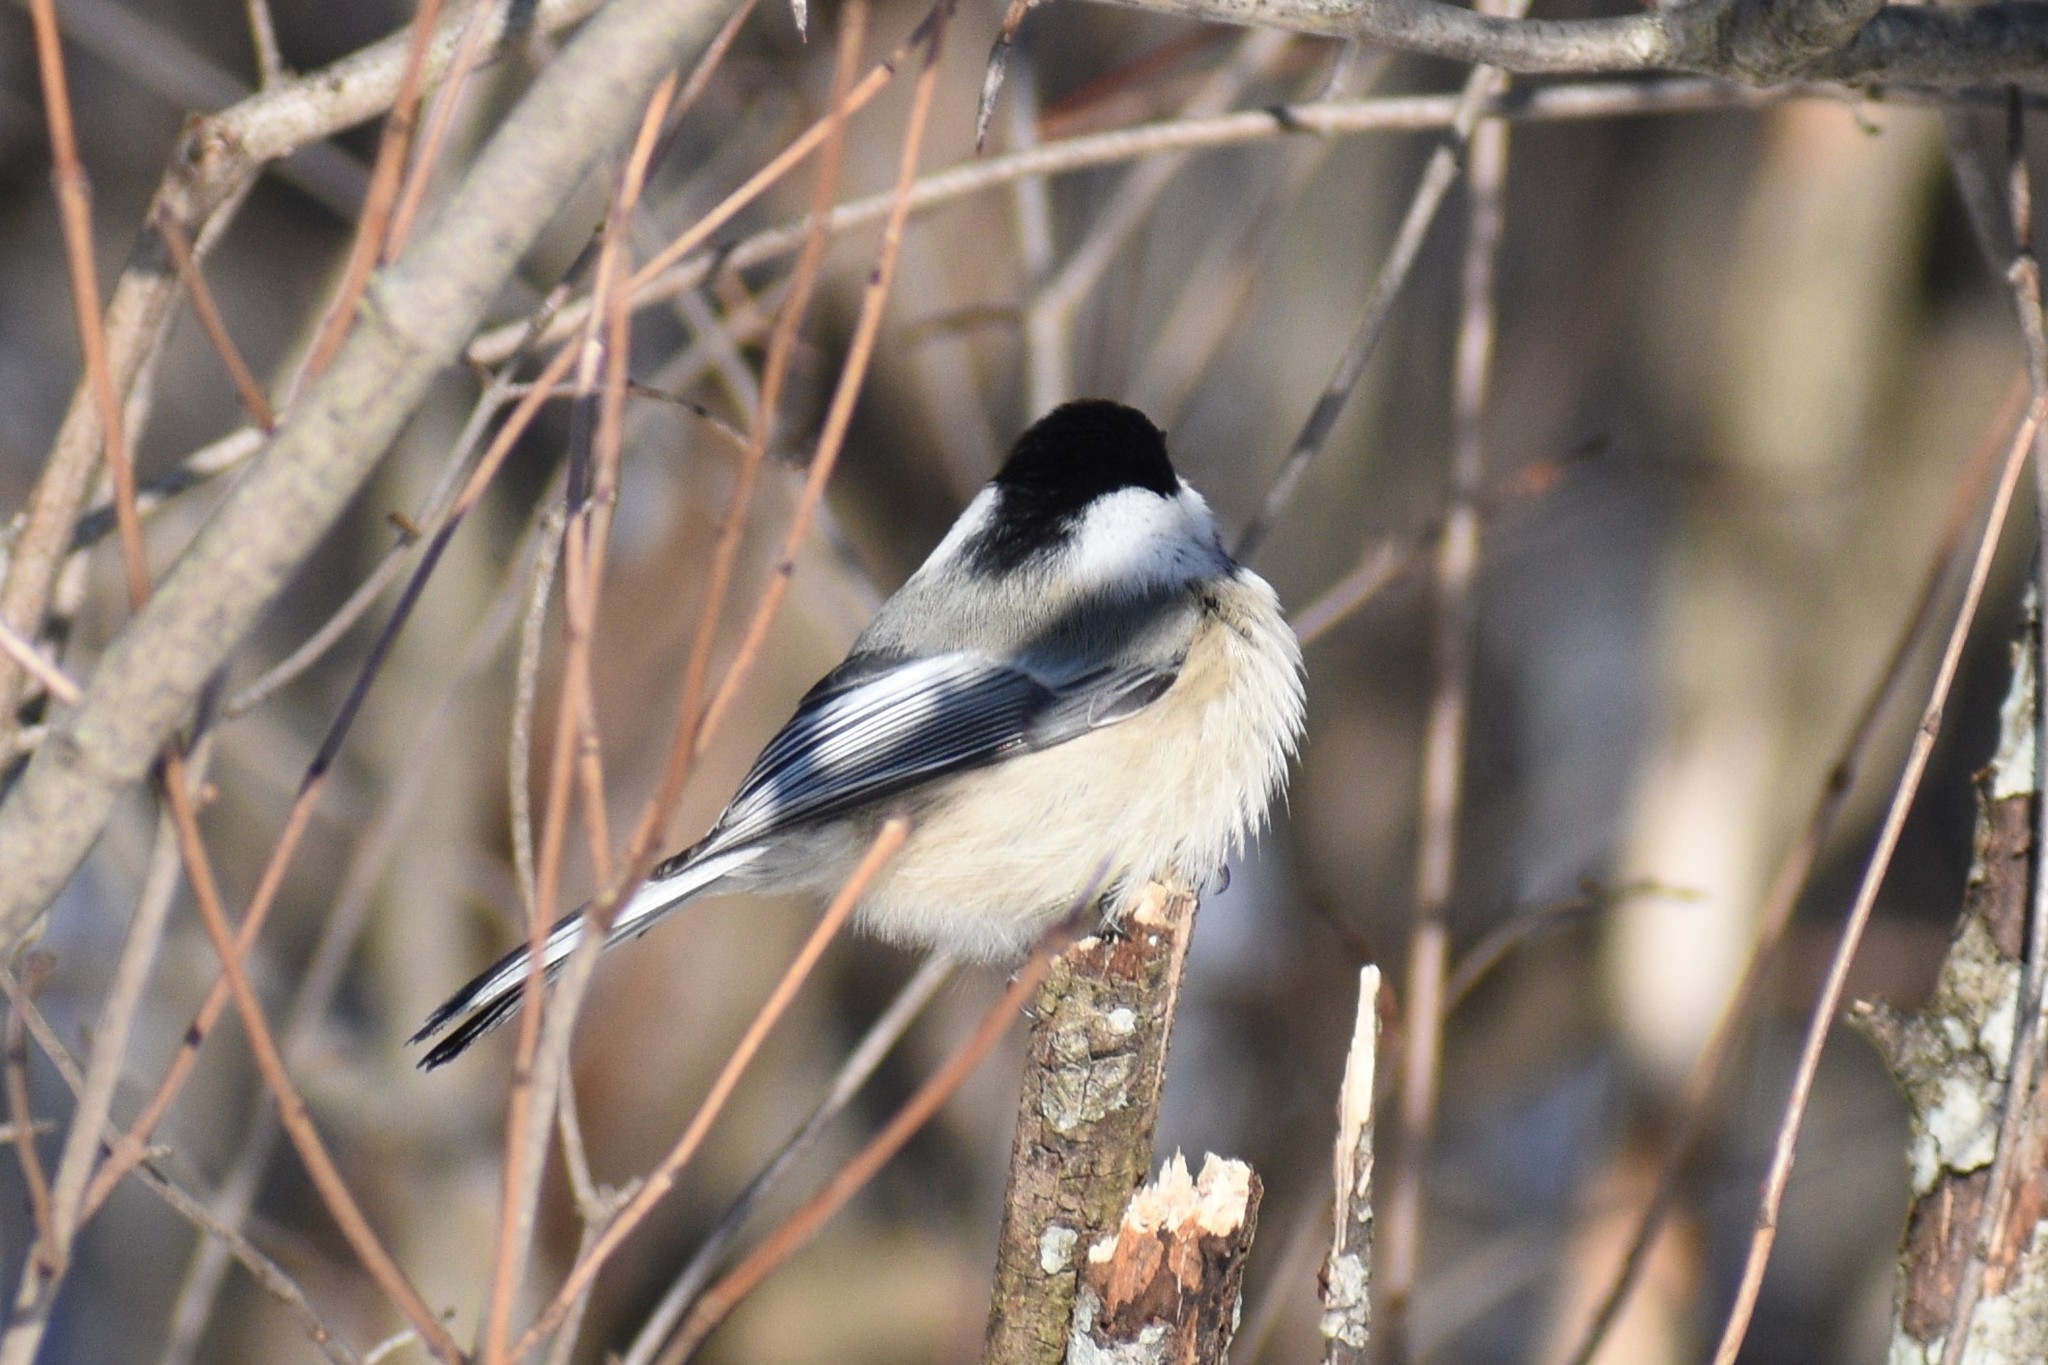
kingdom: Animalia
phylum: Chordata
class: Aves
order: Passeriformes
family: Paridae
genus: Poecile
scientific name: Poecile atricapillus
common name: Black-capped chickadee
